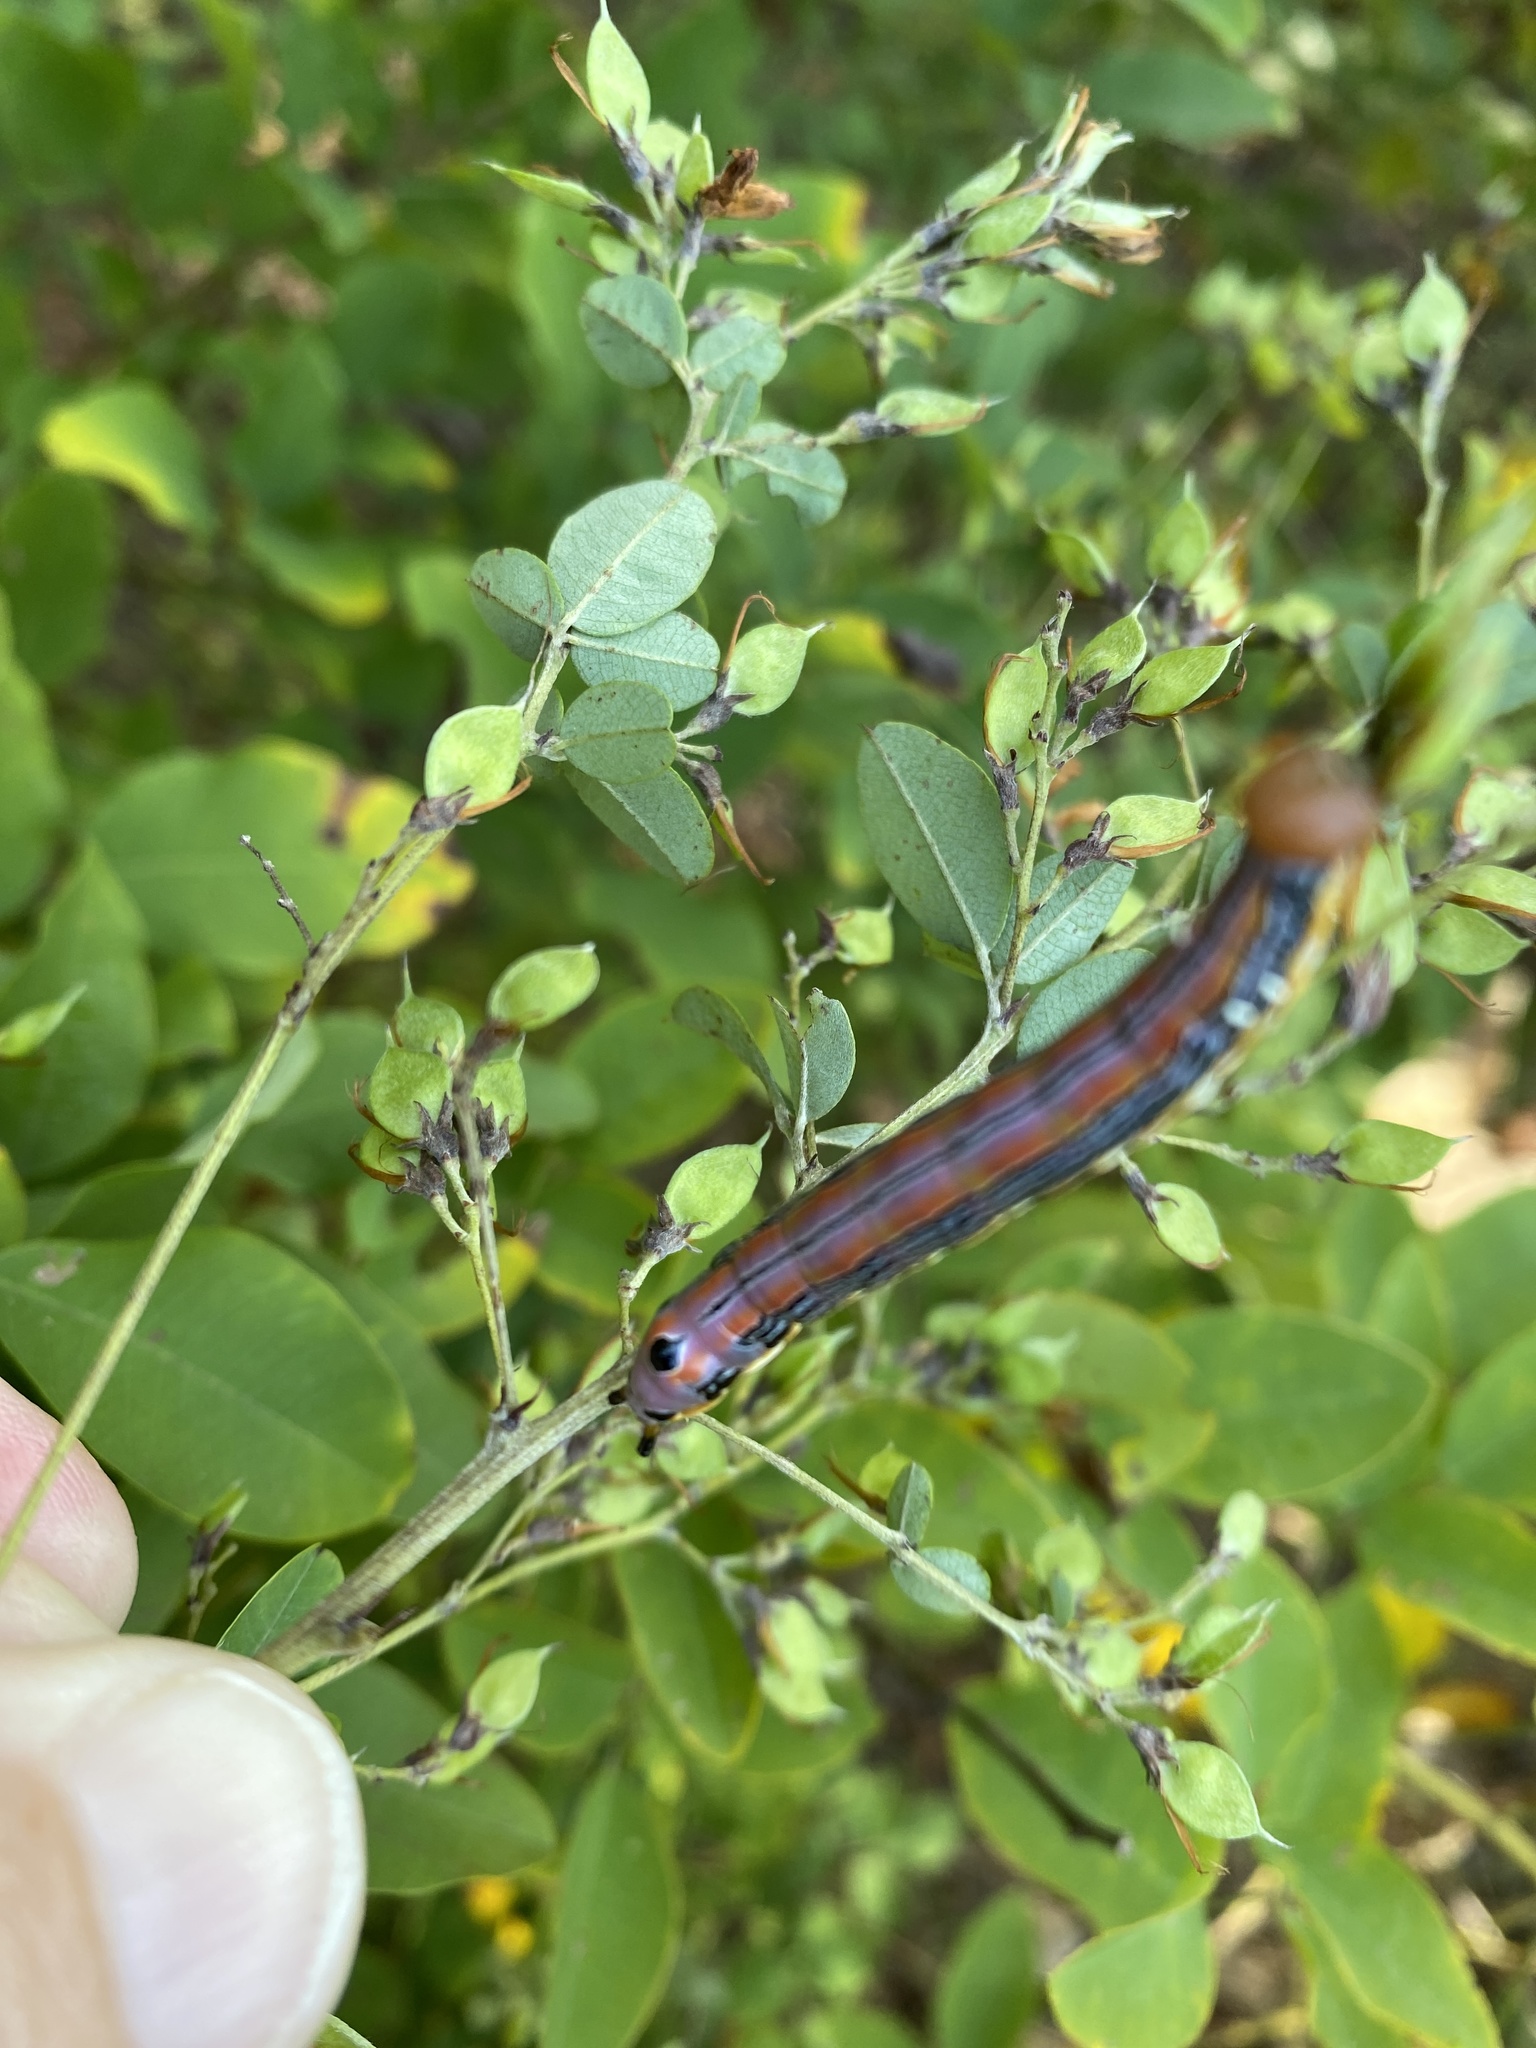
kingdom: Animalia
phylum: Arthropoda
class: Insecta
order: Lepidoptera
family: Notodontidae
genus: Dasylophia
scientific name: Dasylophia anguina
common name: Black-spotted prominent
